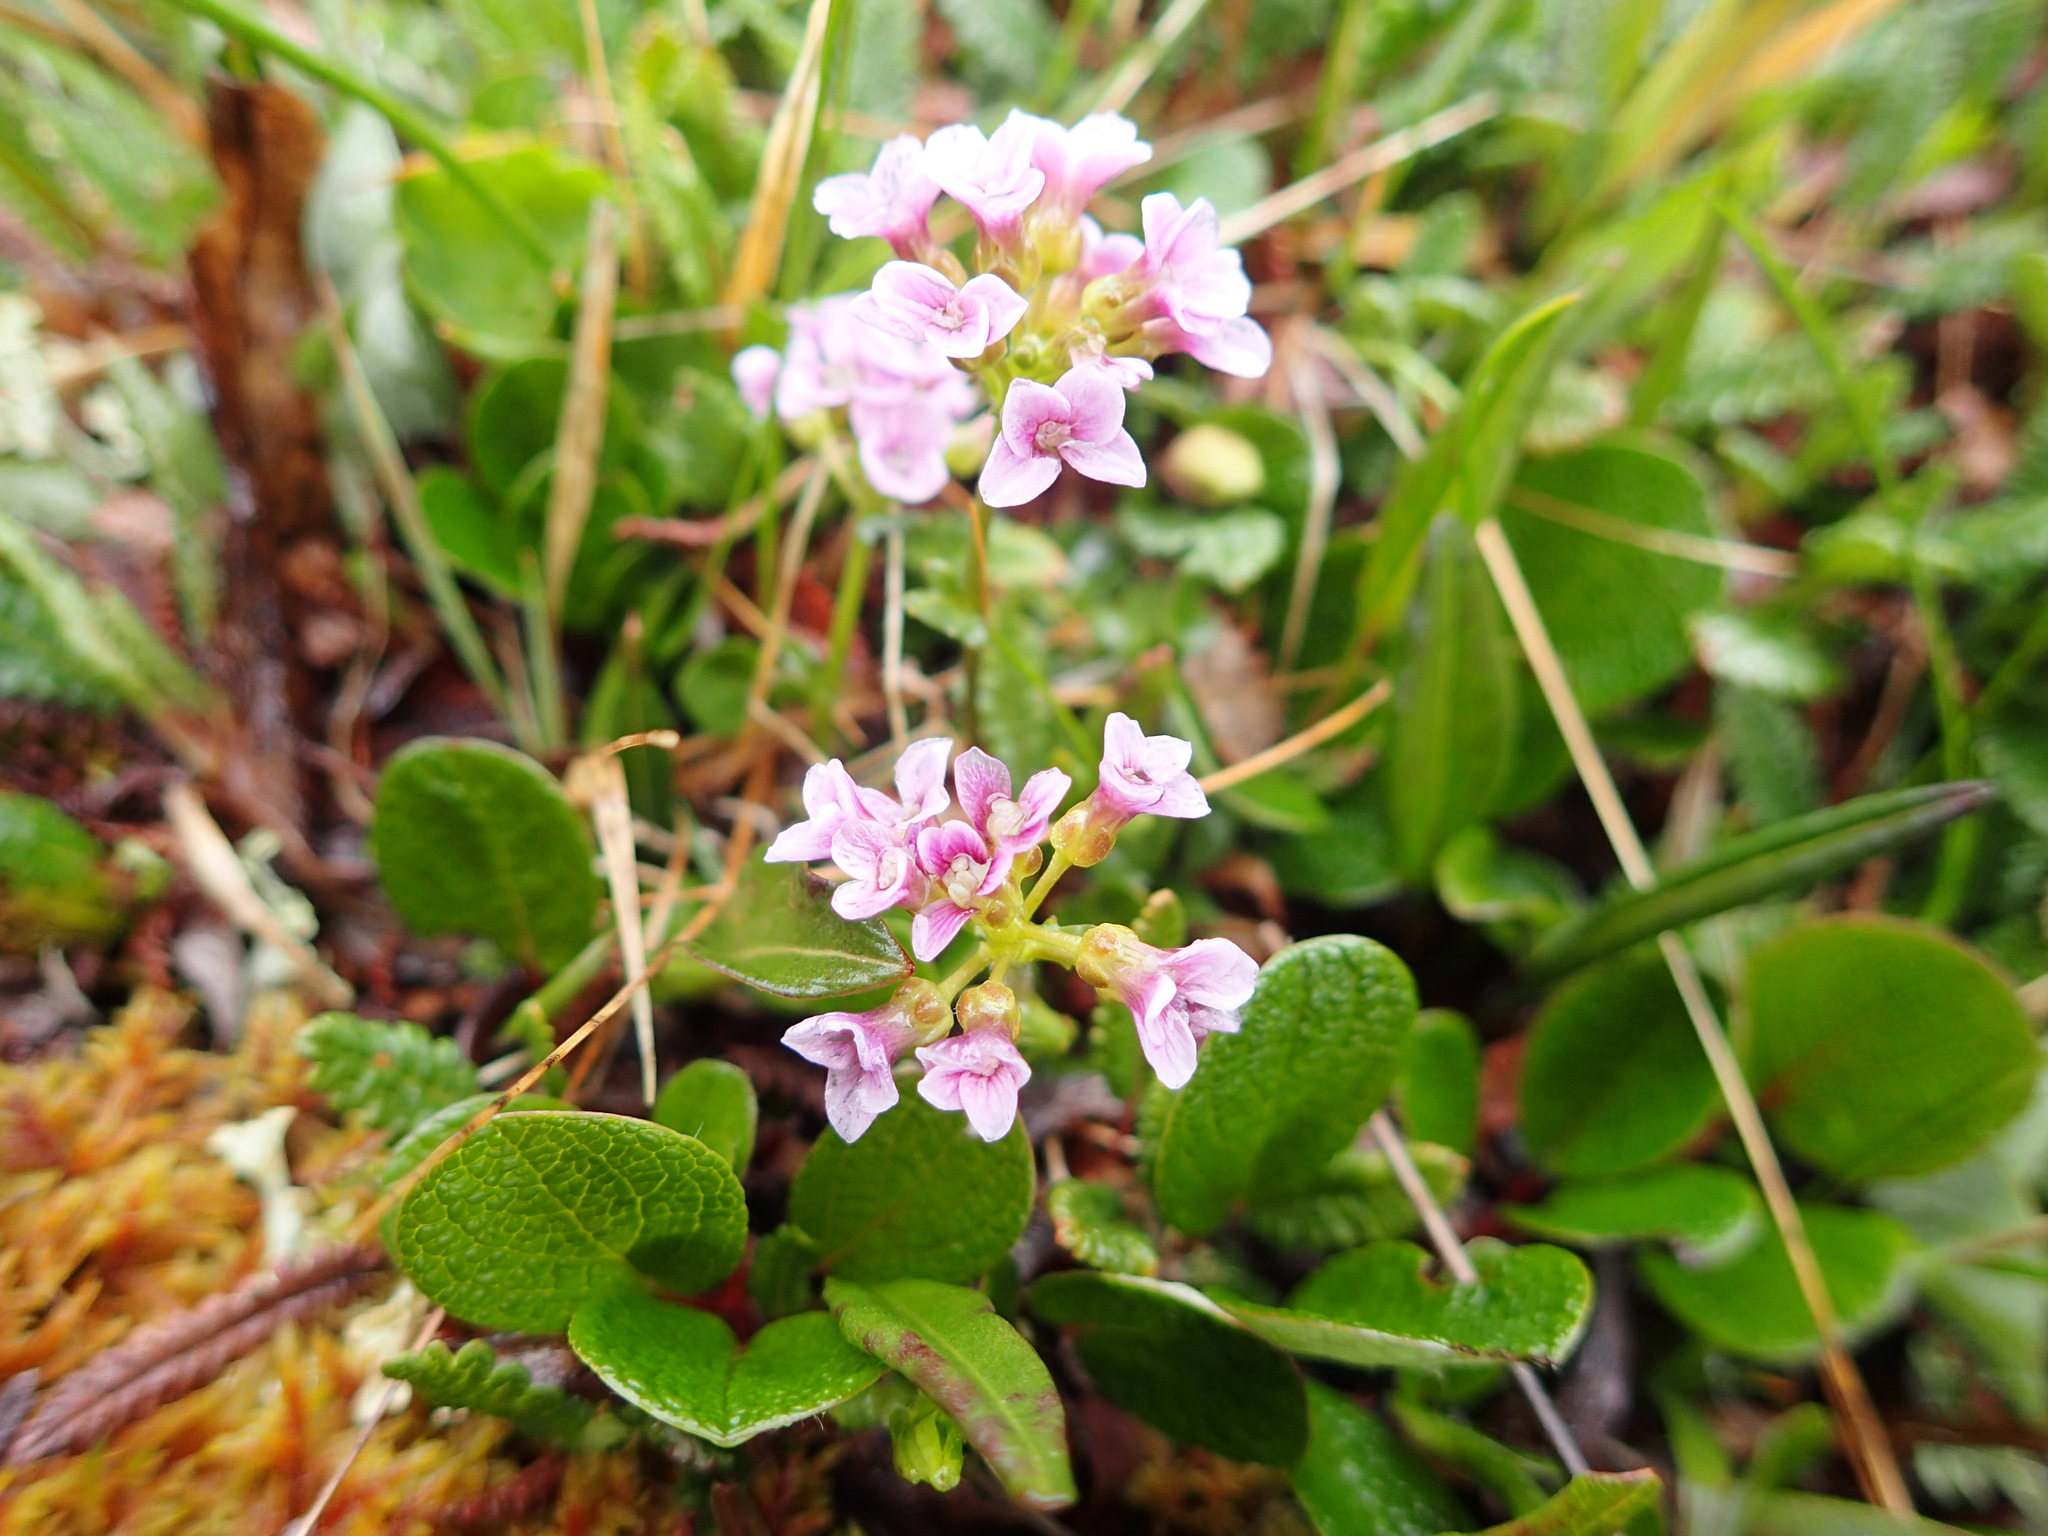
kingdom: Plantae
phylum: Tracheophyta
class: Magnoliopsida
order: Brassicales
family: Brassicaceae
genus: Cardamine
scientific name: Cardamine purpurea
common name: Purple bittercress
